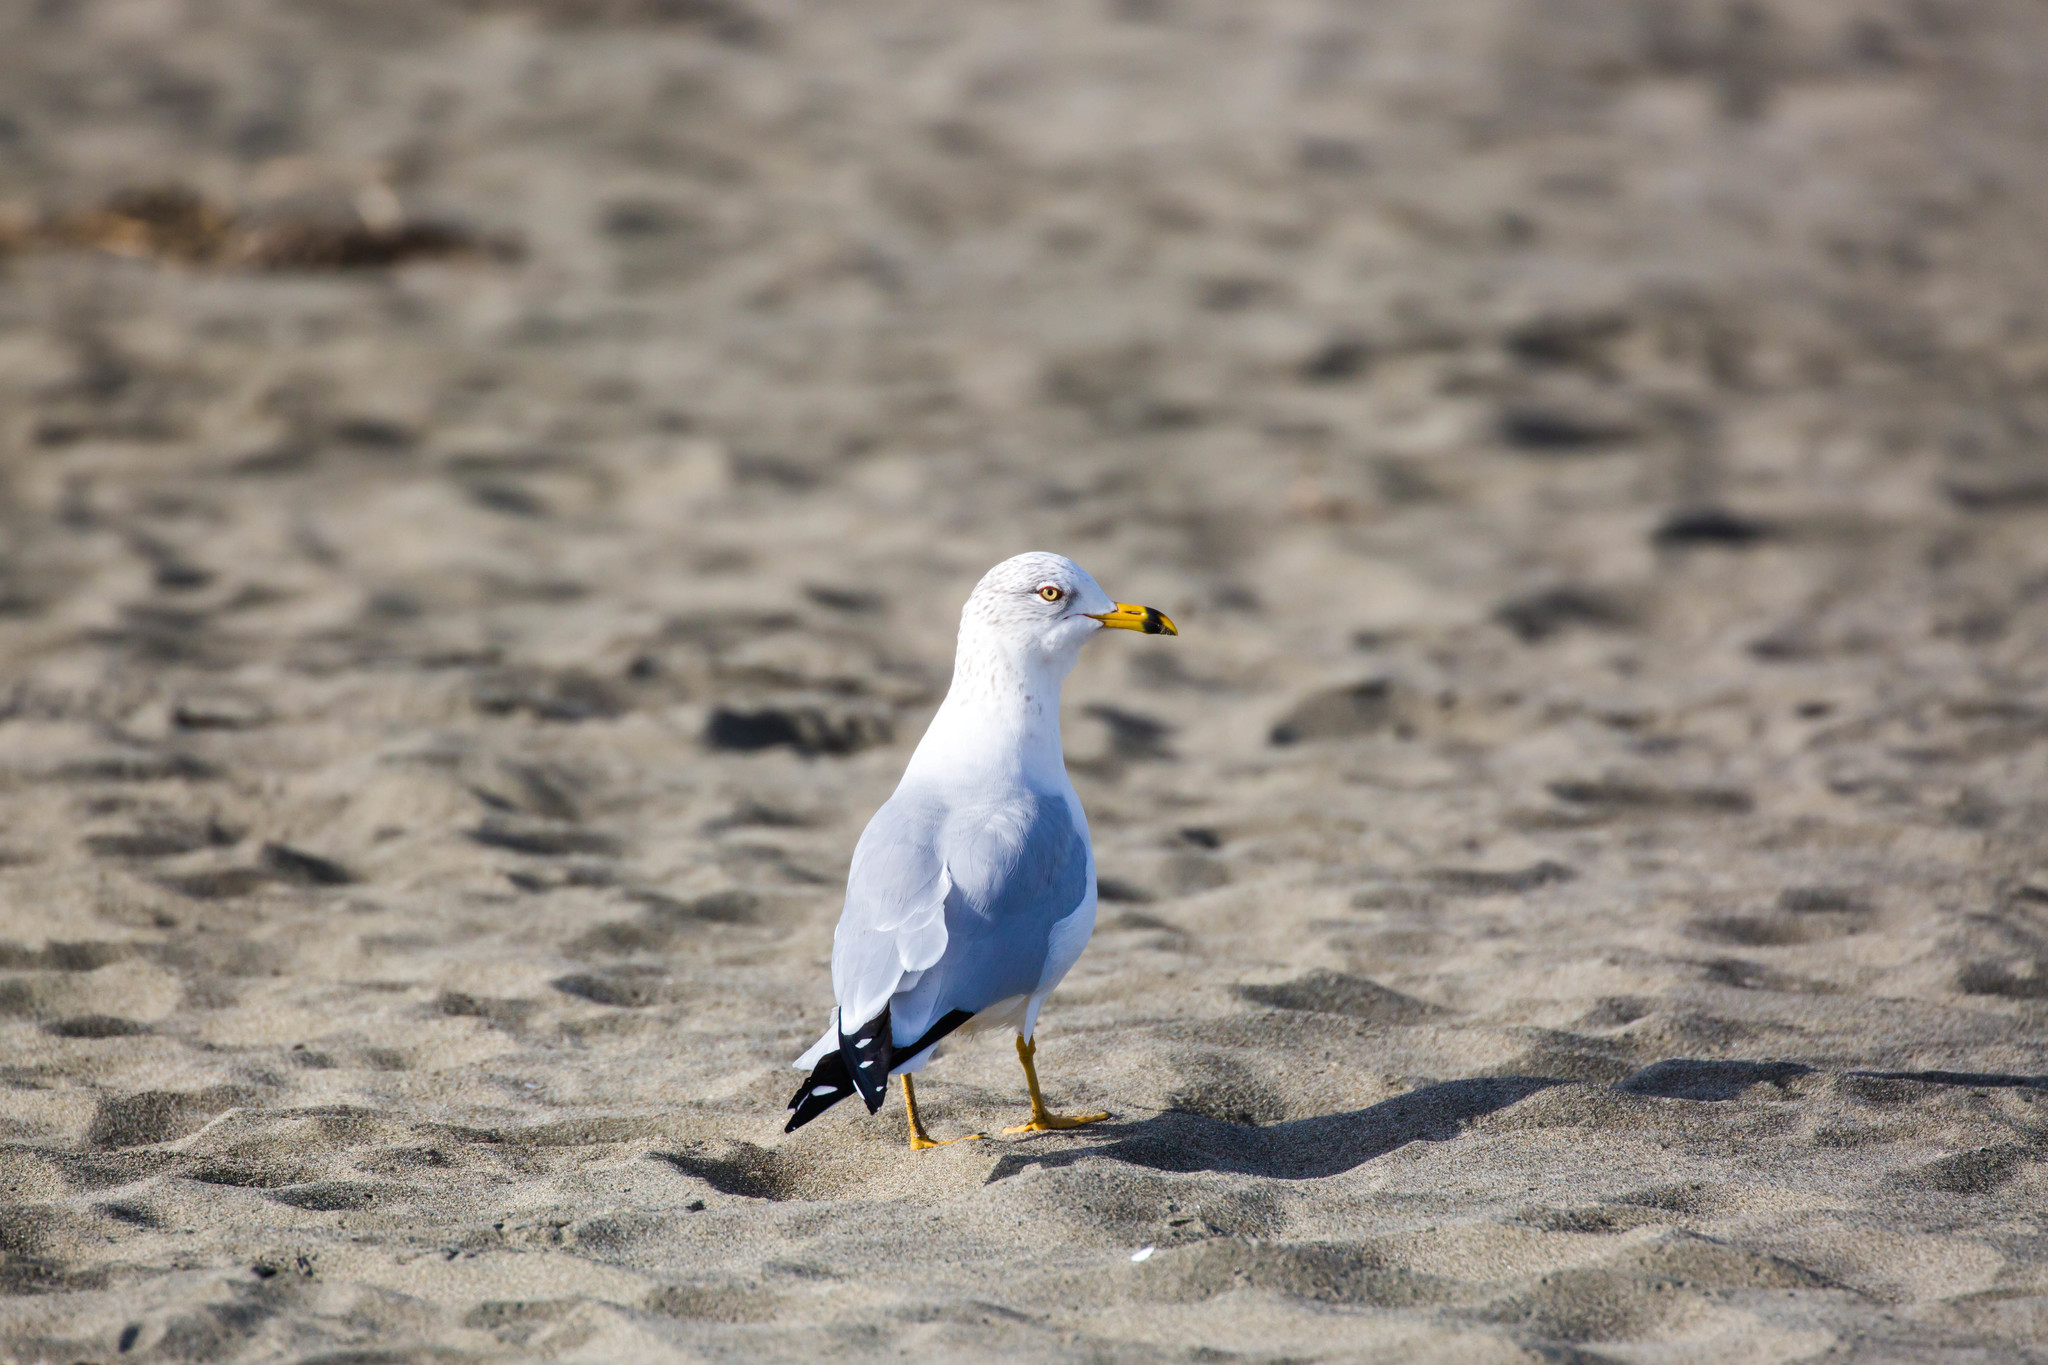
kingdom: Animalia
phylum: Chordata
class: Aves
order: Charadriiformes
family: Laridae
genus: Larus
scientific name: Larus delawarensis
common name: Ring-billed gull
